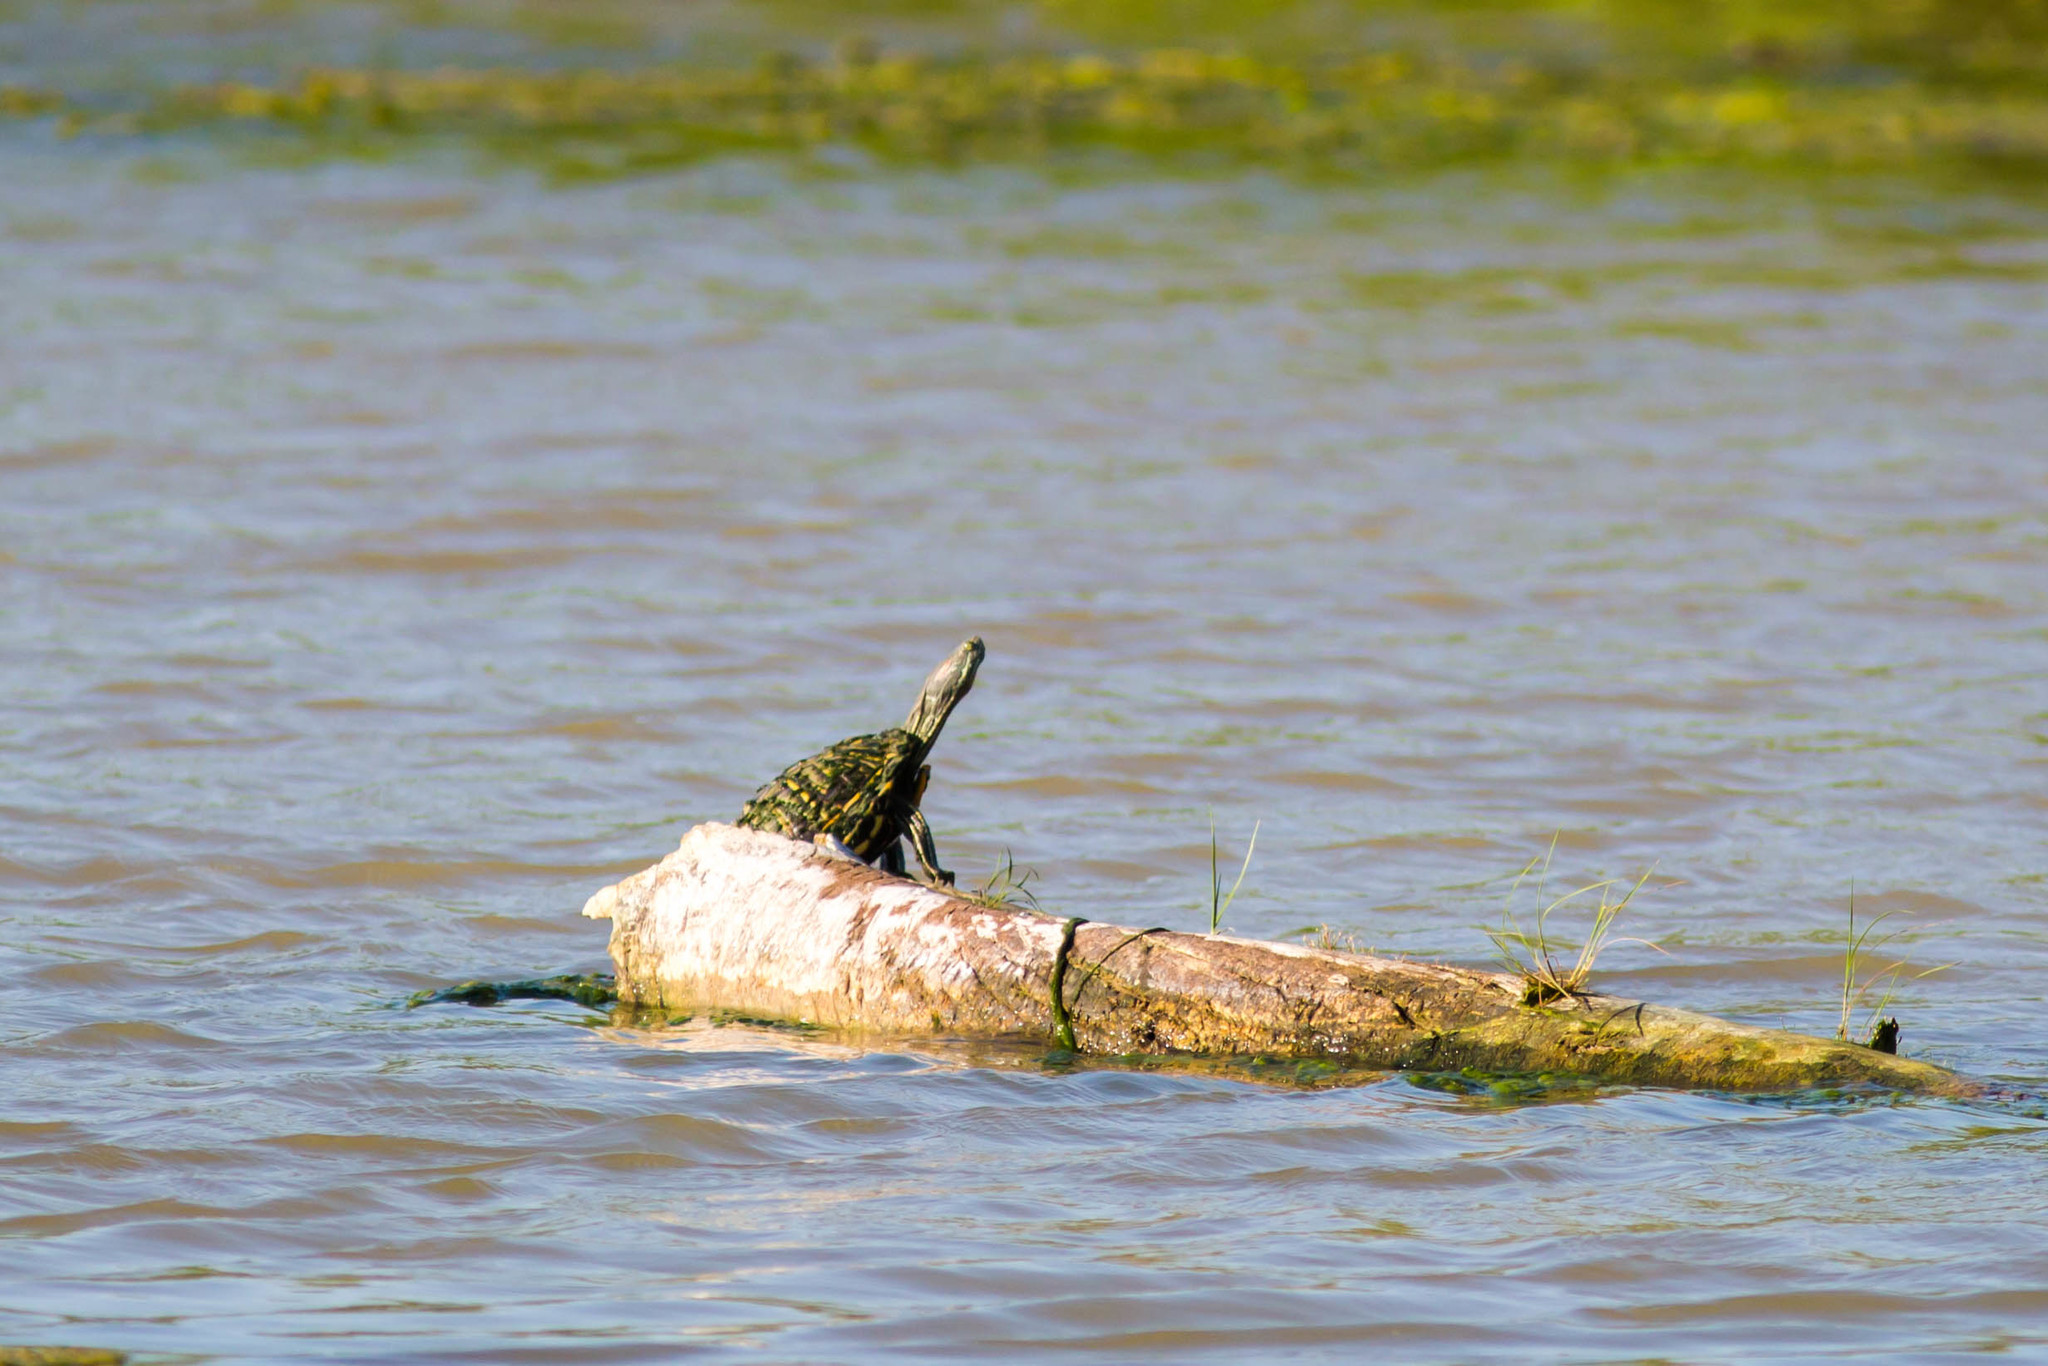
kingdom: Animalia
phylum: Chordata
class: Testudines
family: Emydidae
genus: Trachemys
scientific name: Trachemys scripta
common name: Slider
